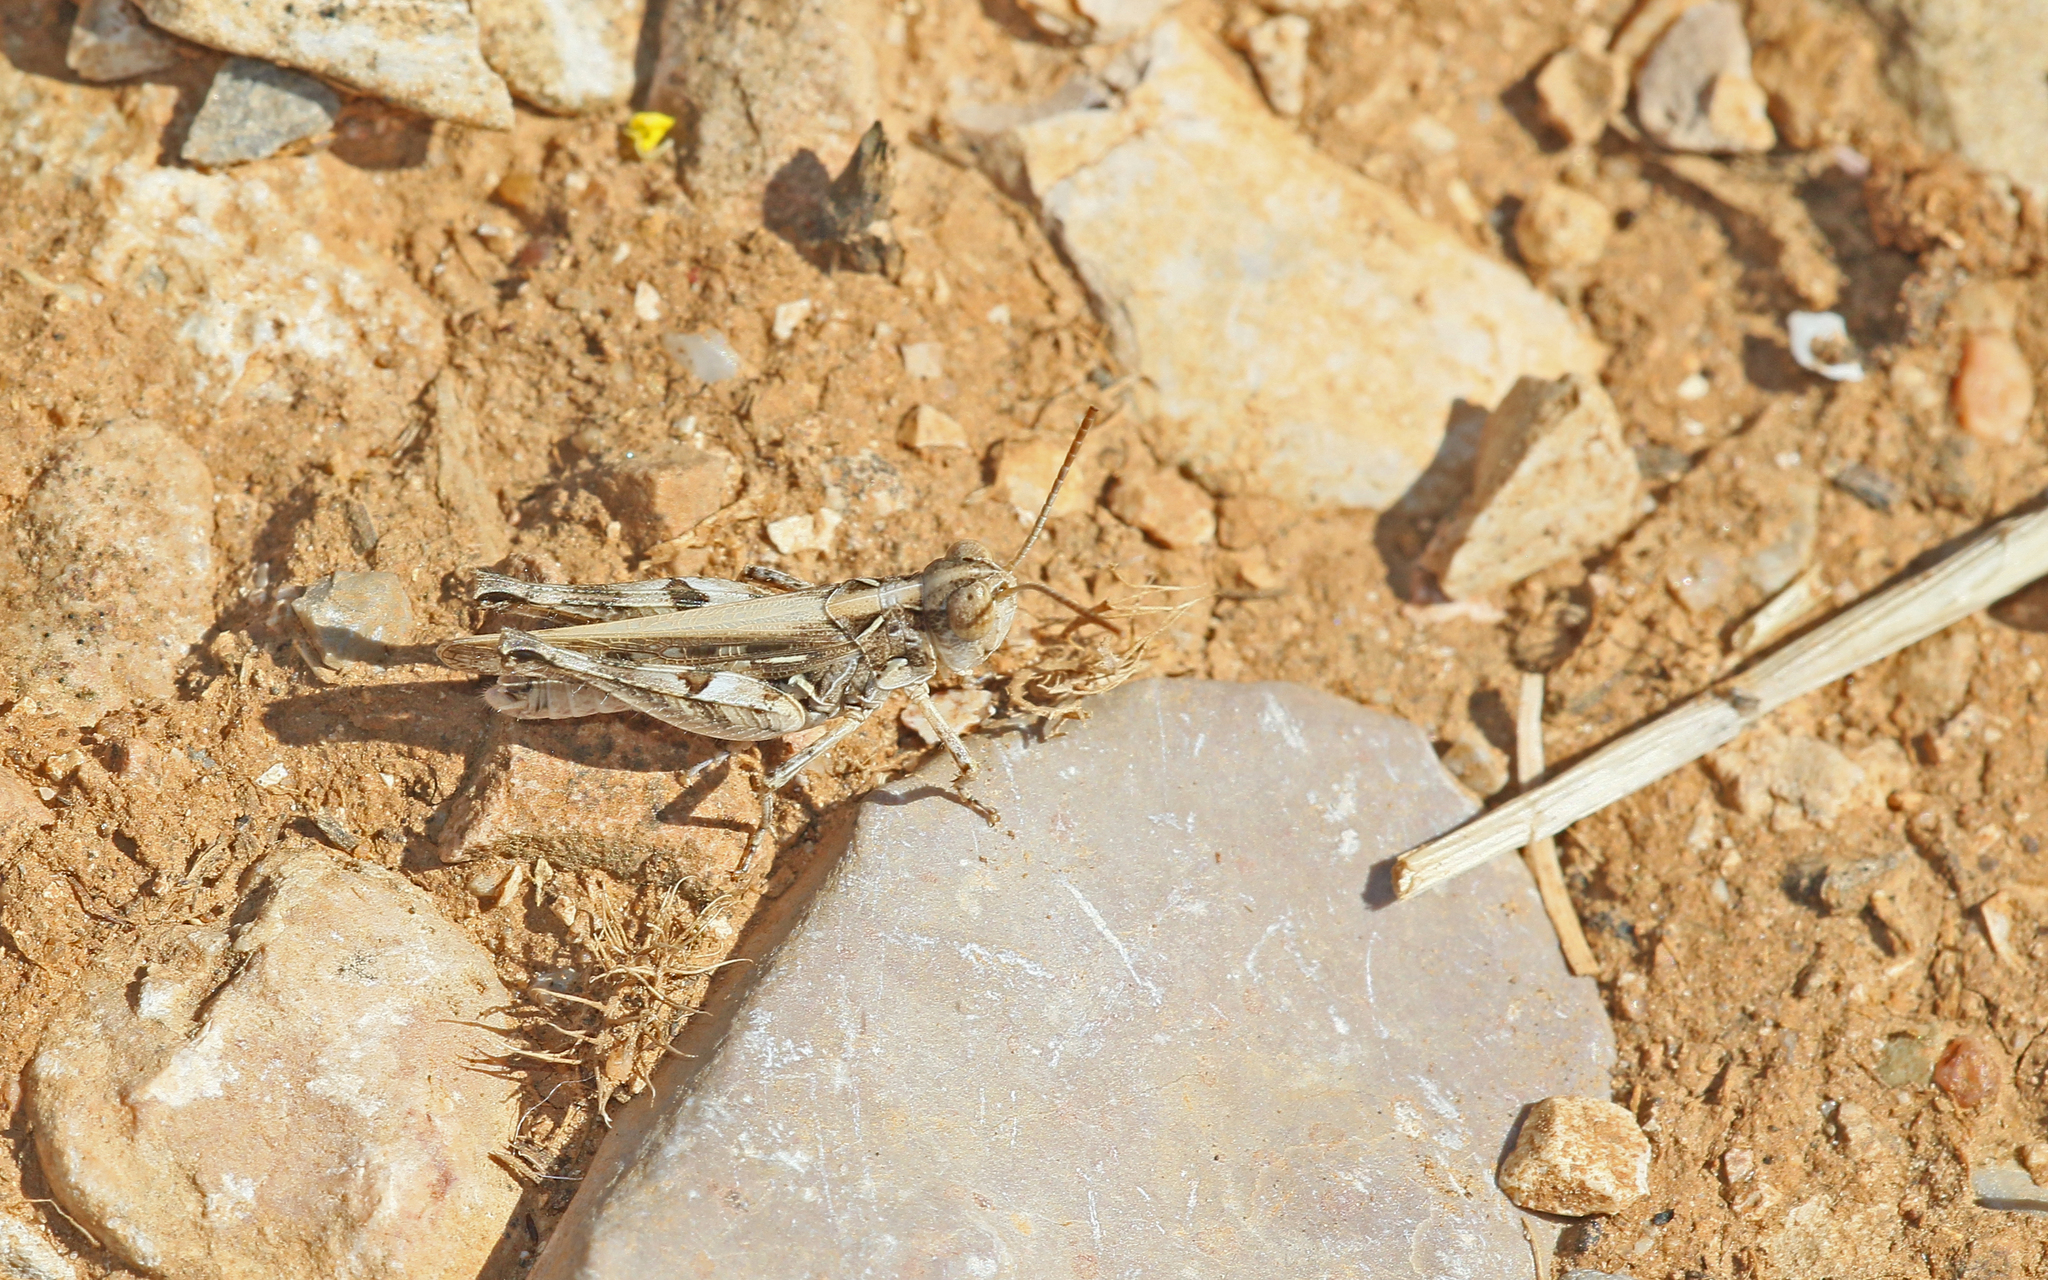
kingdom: Animalia
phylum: Arthropoda
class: Insecta
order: Orthoptera
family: Acrididae
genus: Dociostaurus
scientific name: Dociostaurus jagoi
